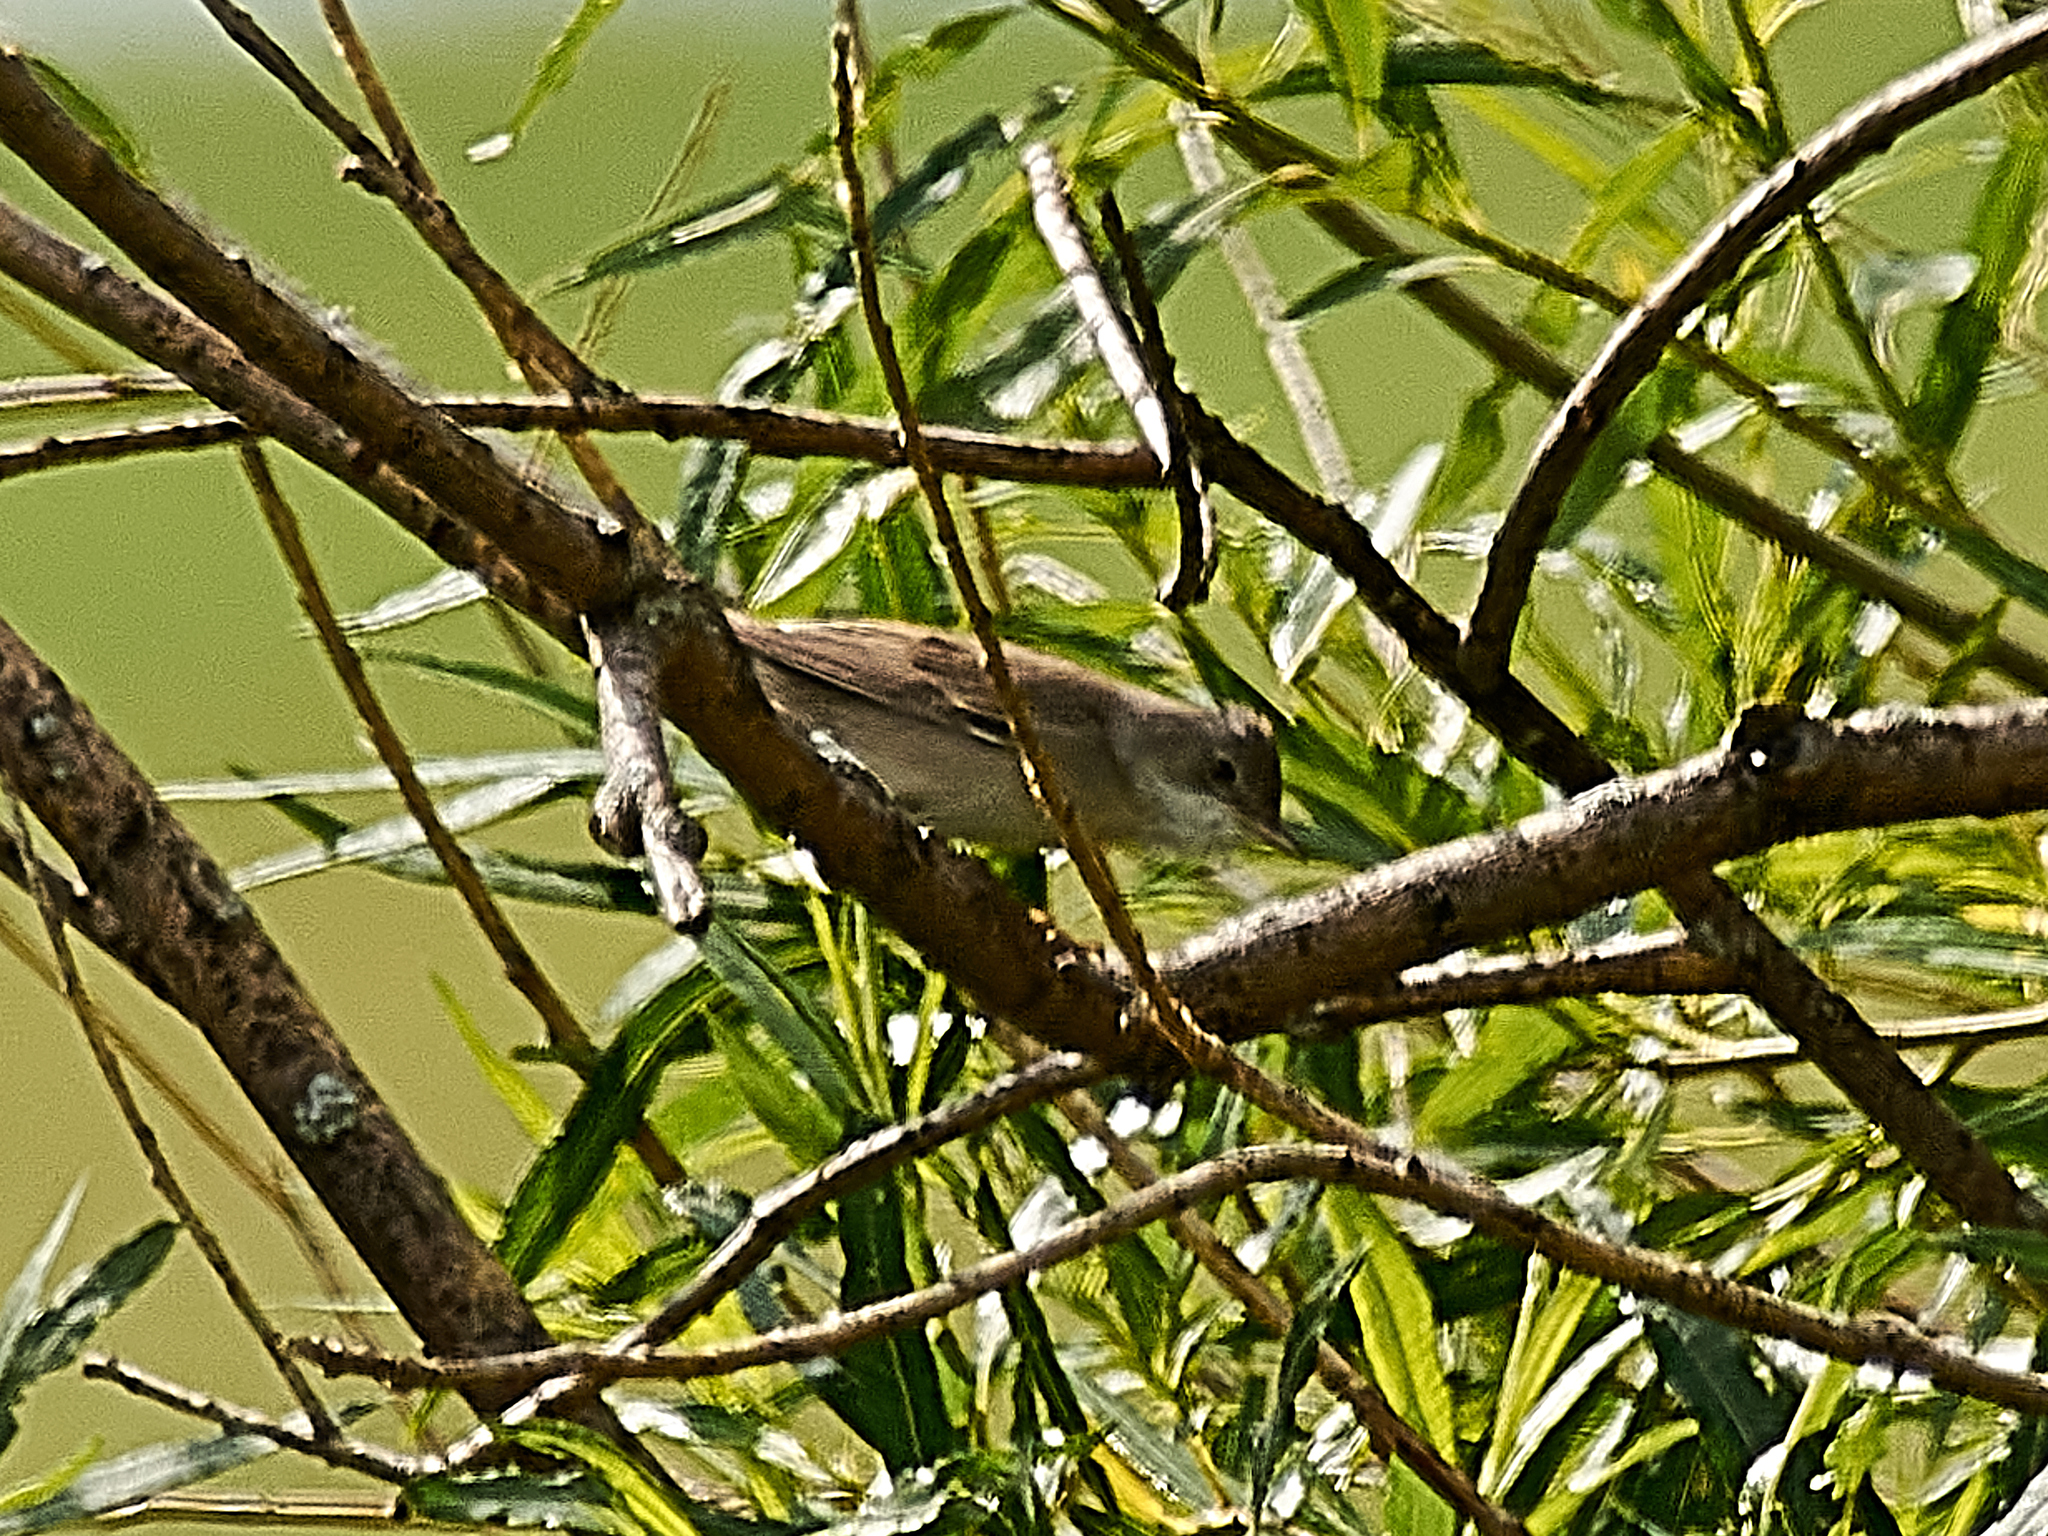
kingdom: Animalia
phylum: Chordata
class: Aves
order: Passeriformes
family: Sylviidae
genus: Sylvia
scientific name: Sylvia communis
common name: Common whitethroat
